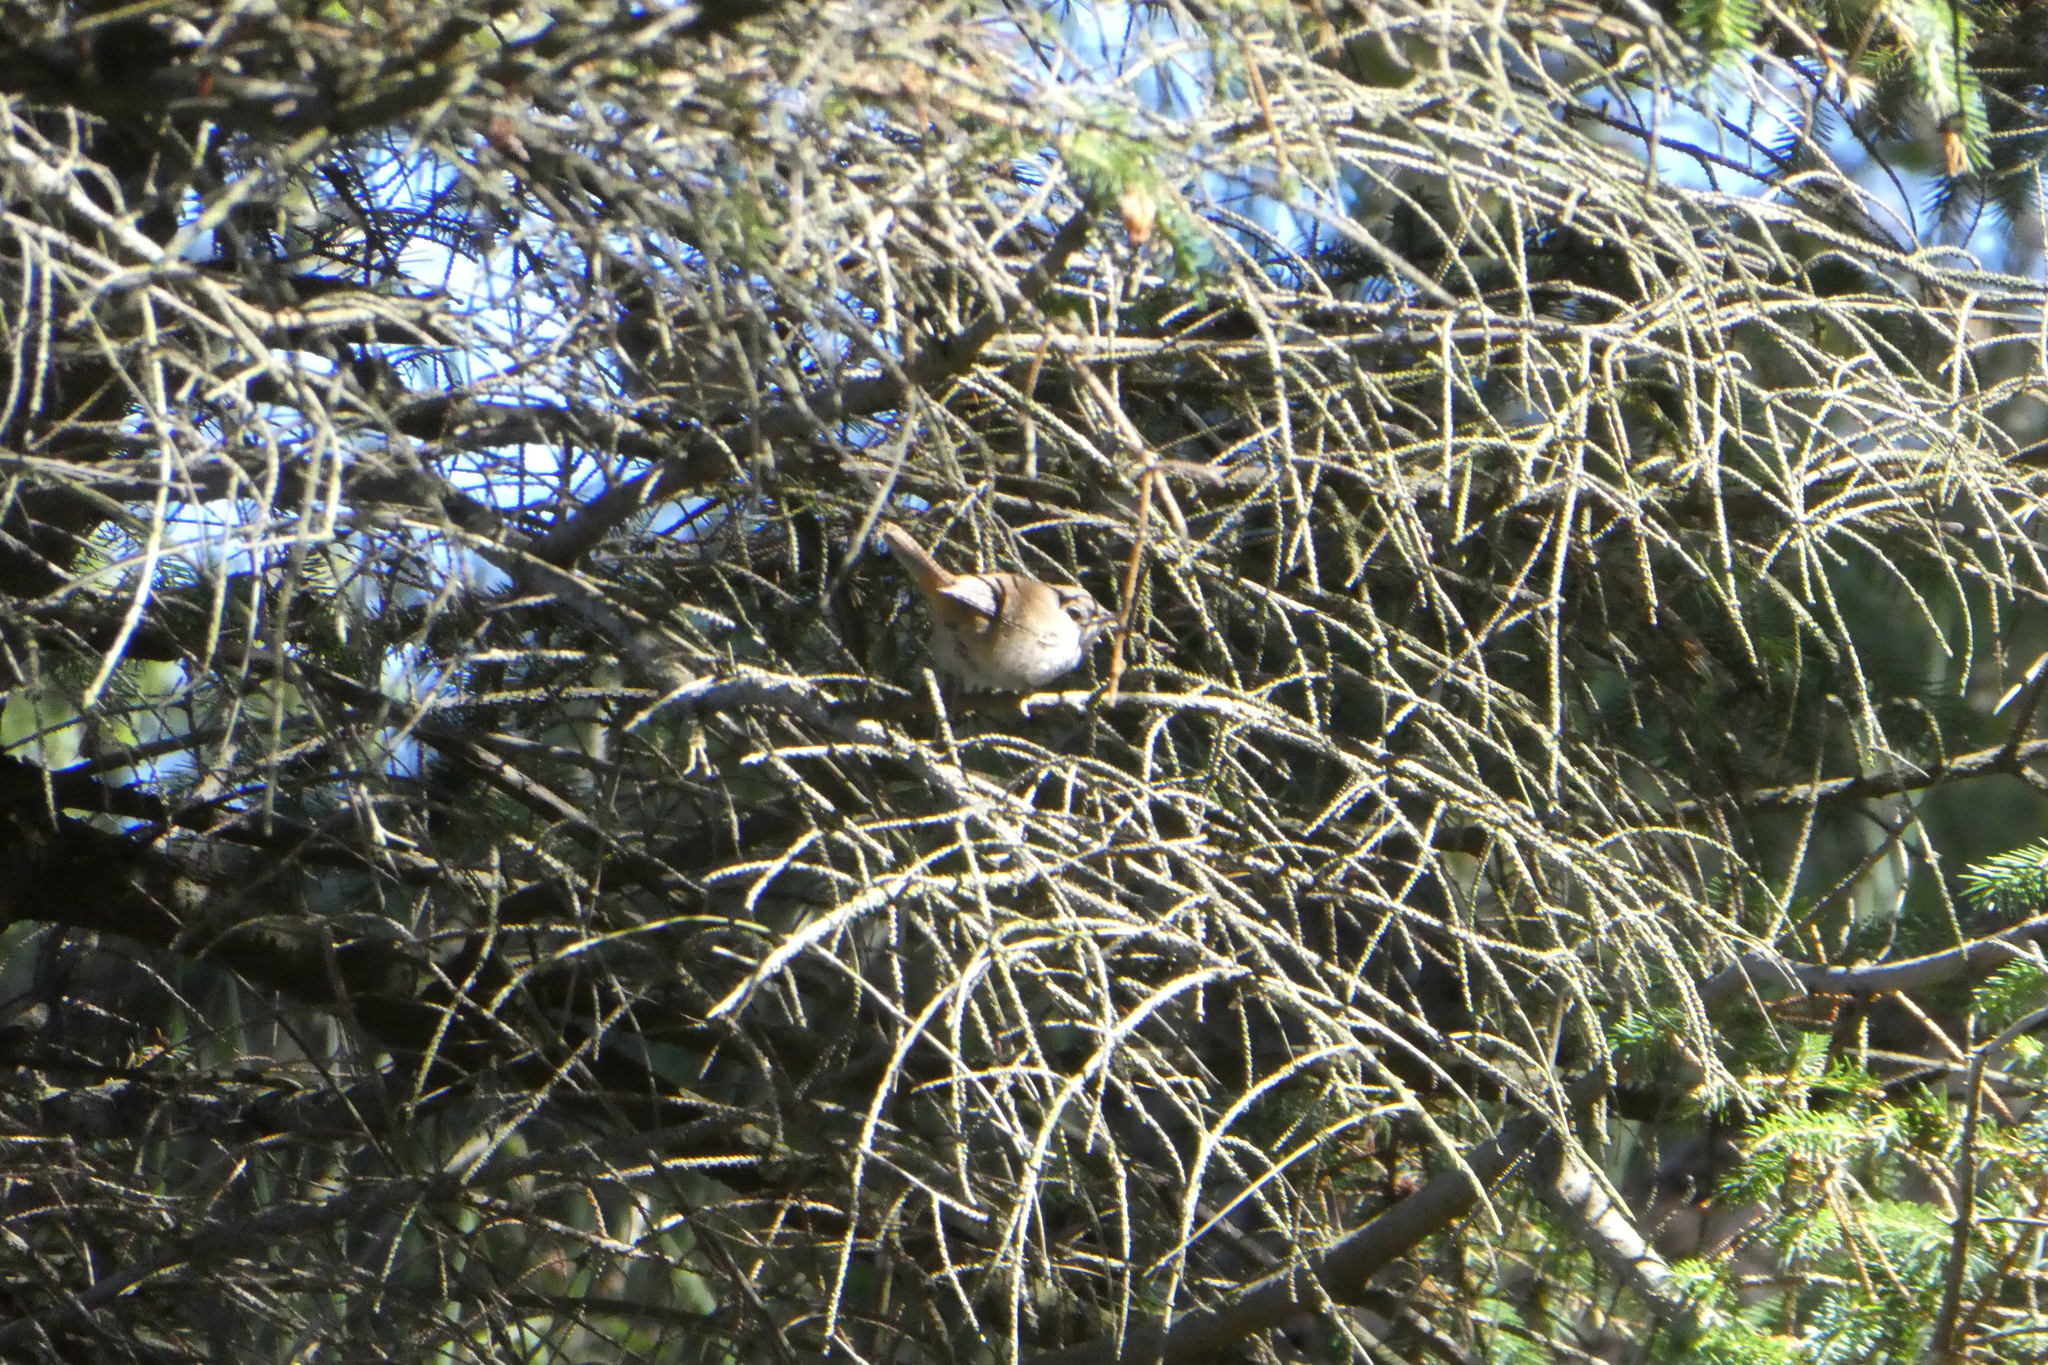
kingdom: Animalia
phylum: Chordata
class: Aves
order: Passeriformes
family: Troglodytidae
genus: Thryomanes
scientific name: Thryomanes bewickii
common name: Bewick's wren
